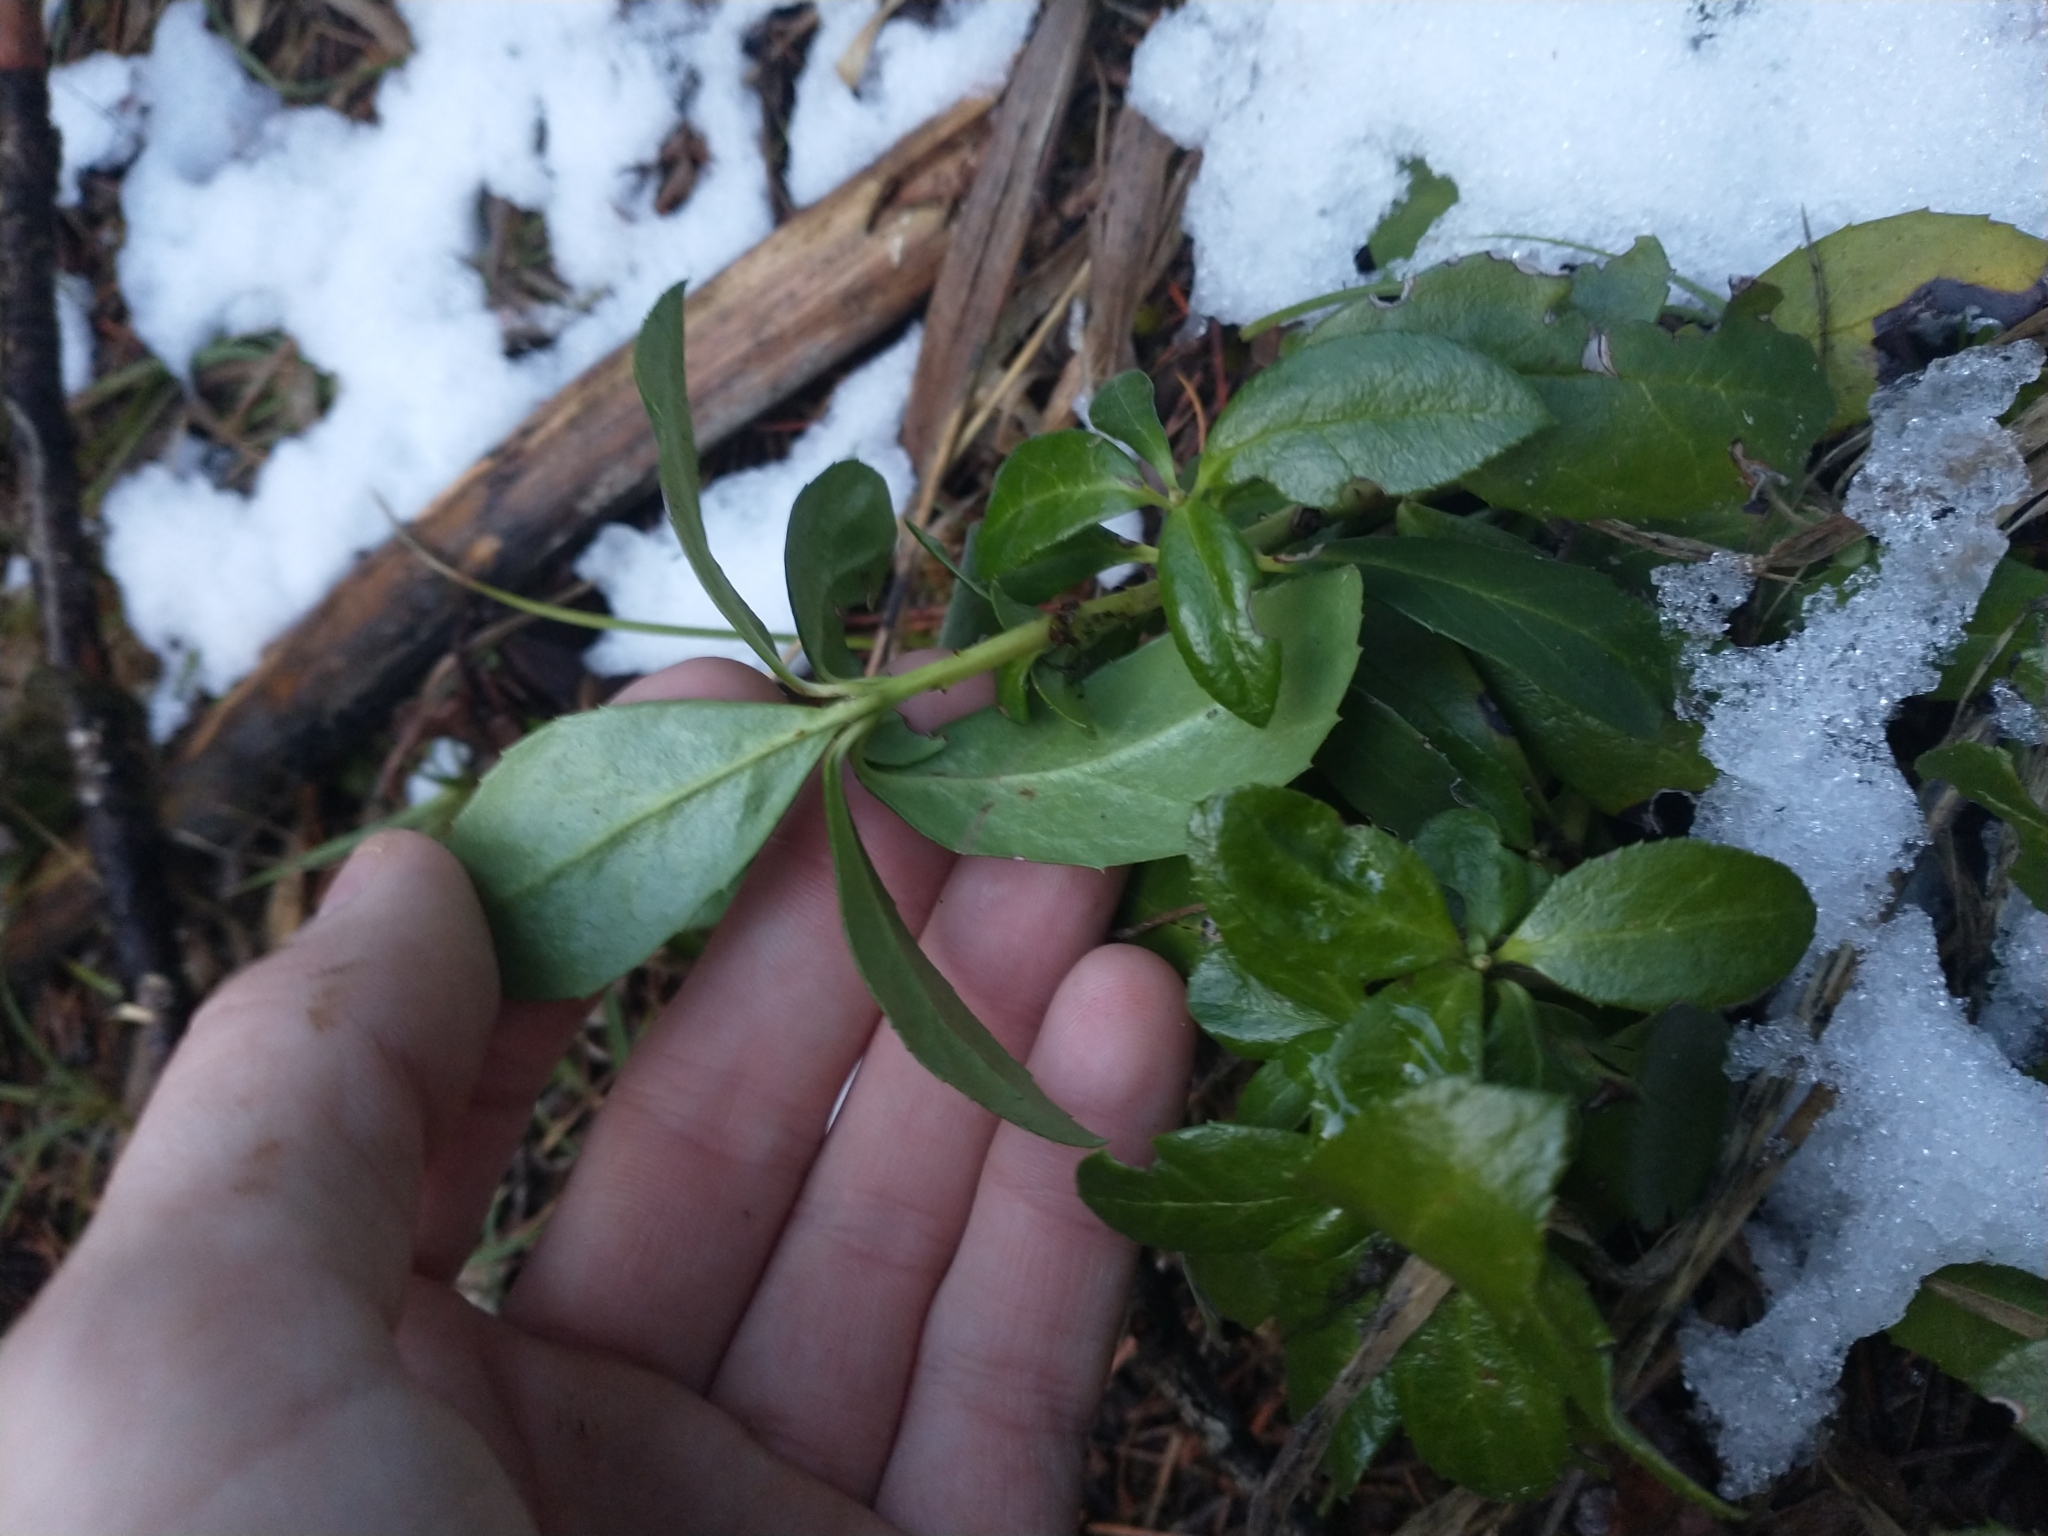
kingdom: Plantae
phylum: Tracheophyta
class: Magnoliopsida
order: Ericales
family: Ericaceae
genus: Chimaphila
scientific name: Chimaphila umbellata
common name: Pipsissewa
